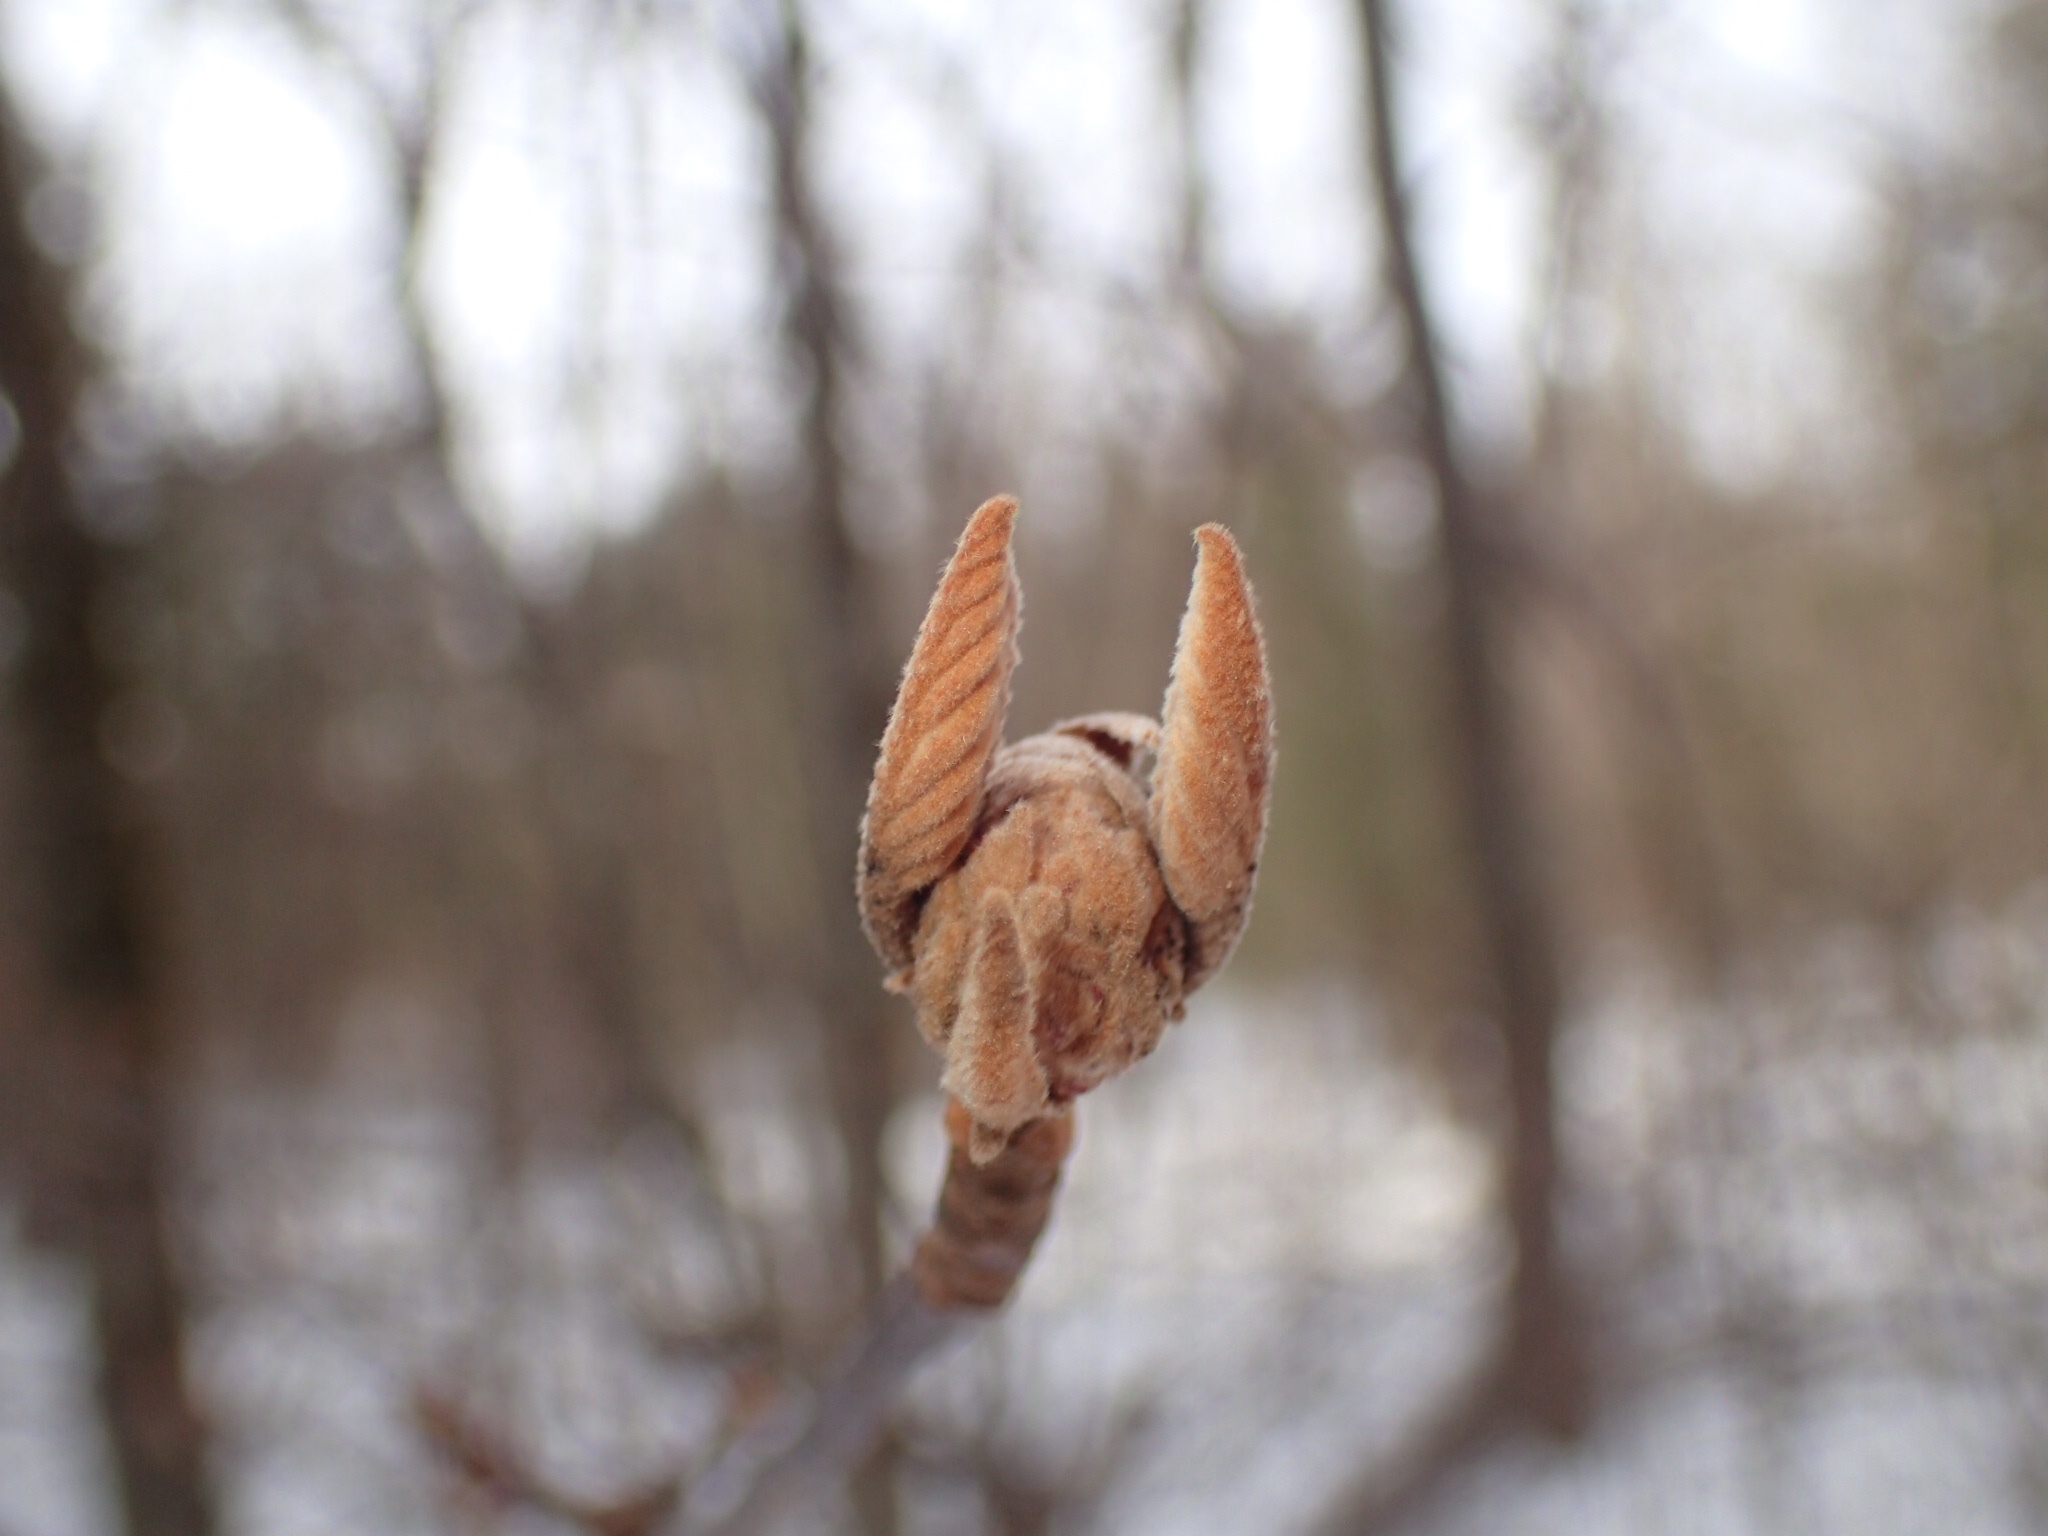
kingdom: Plantae
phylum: Tracheophyta
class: Magnoliopsida
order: Dipsacales
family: Viburnaceae
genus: Viburnum
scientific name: Viburnum lantanoides
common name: Hobblebush
